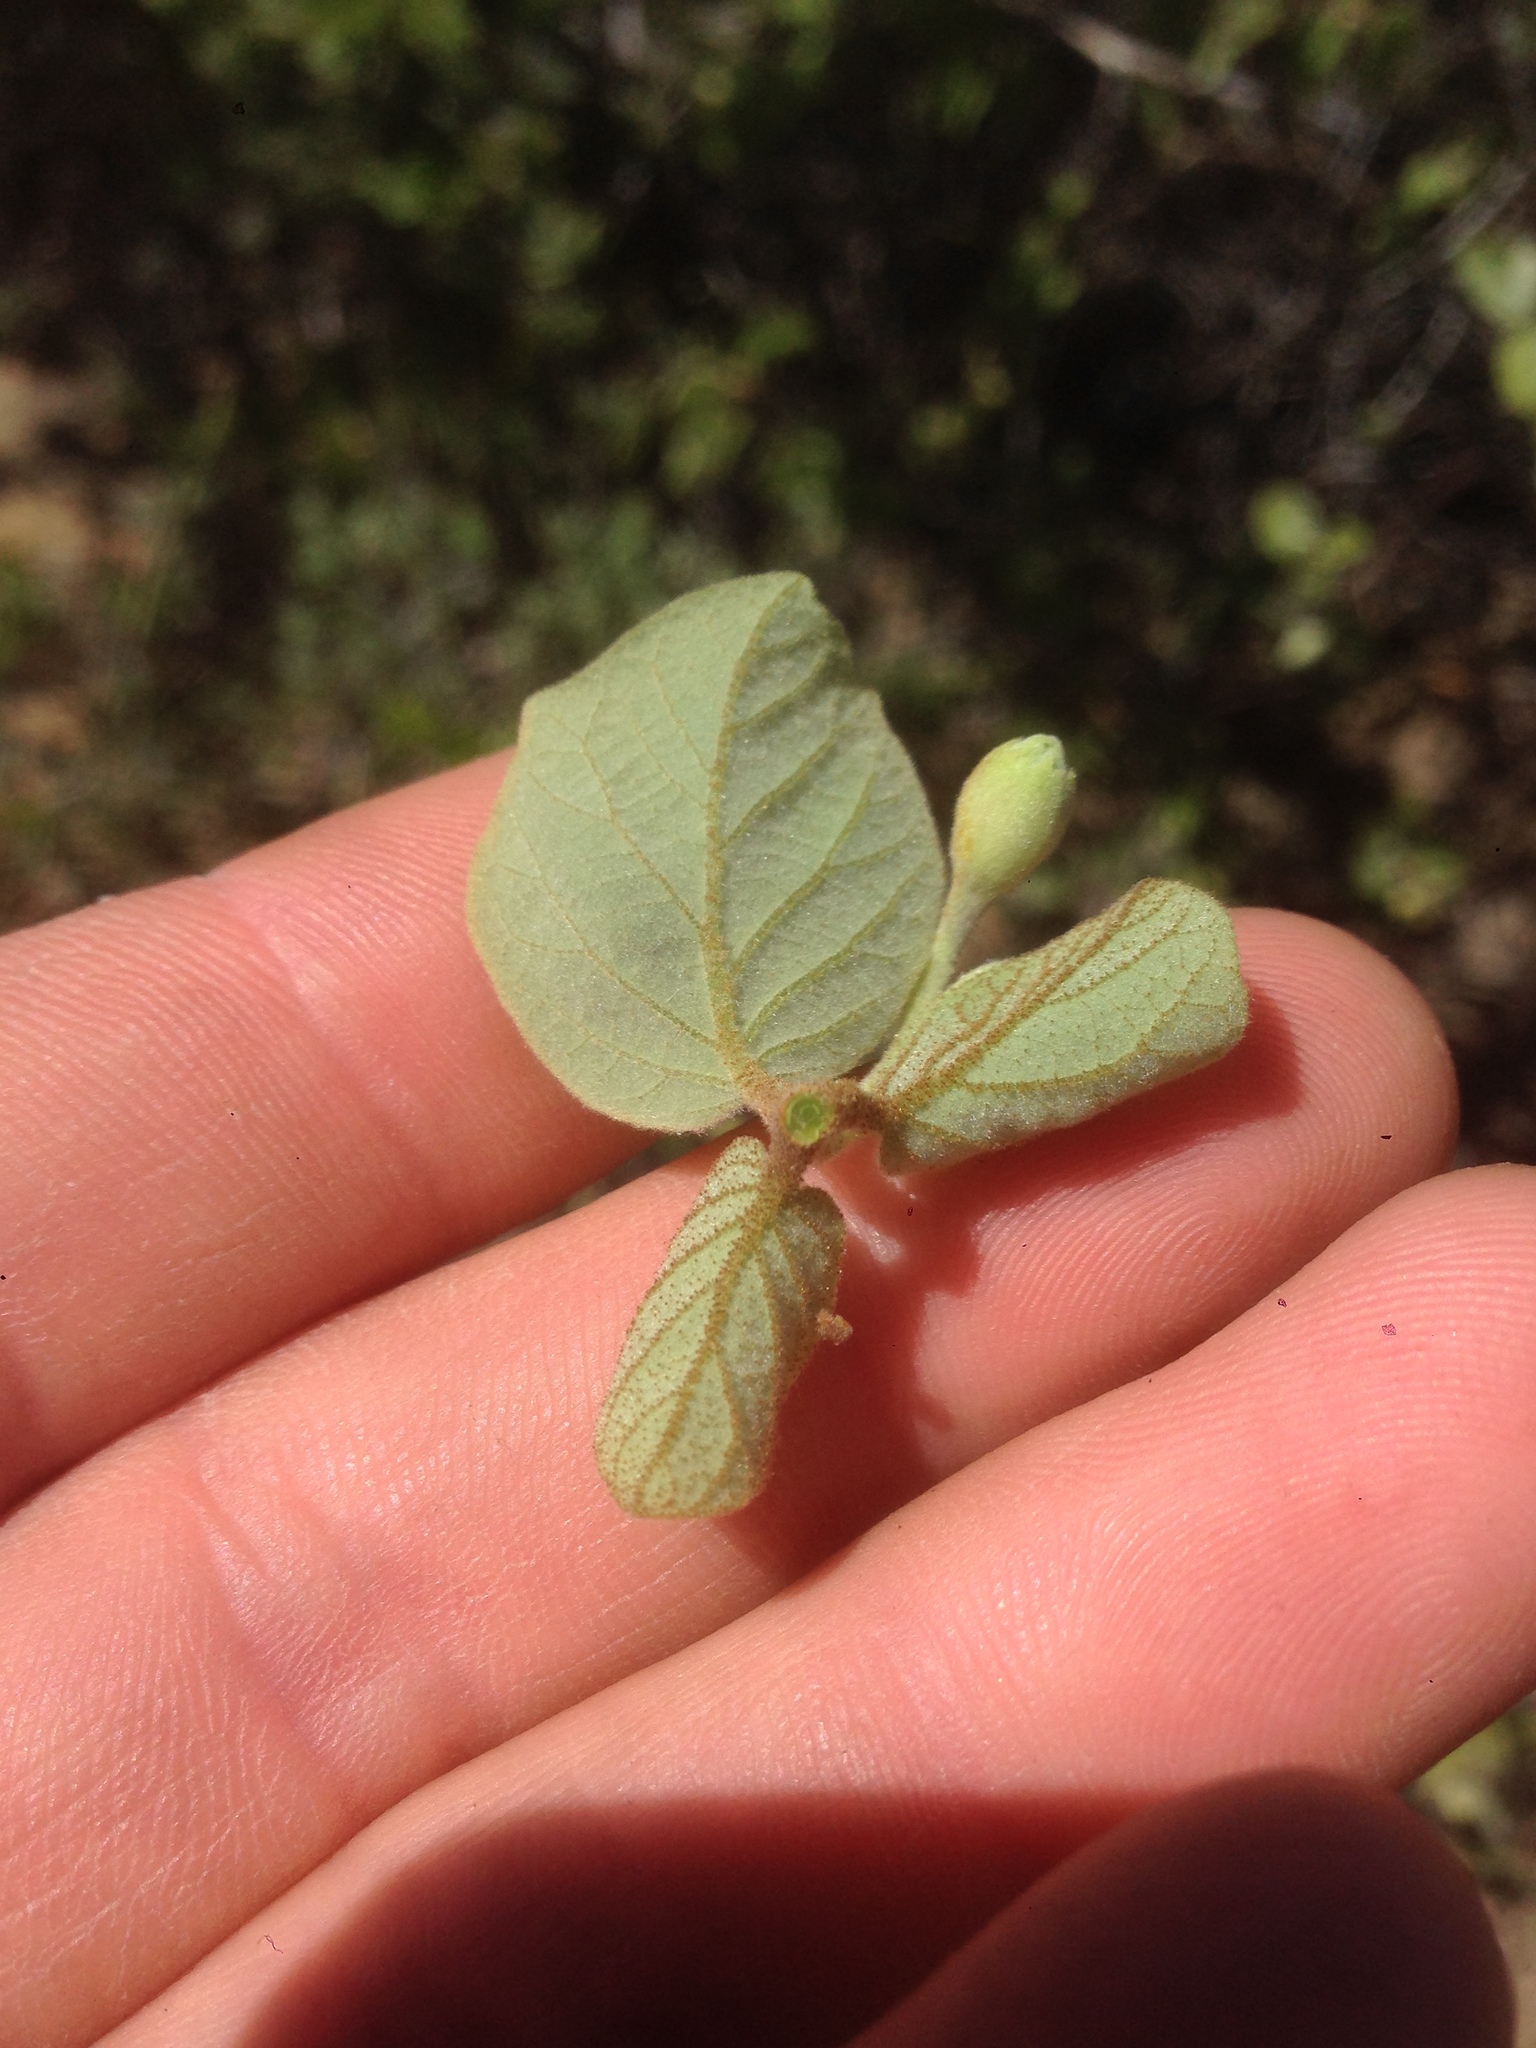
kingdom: Plantae
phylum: Tracheophyta
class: Magnoliopsida
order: Ericales
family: Styracaceae
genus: Styrax
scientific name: Styrax redivivus
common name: California styrax
